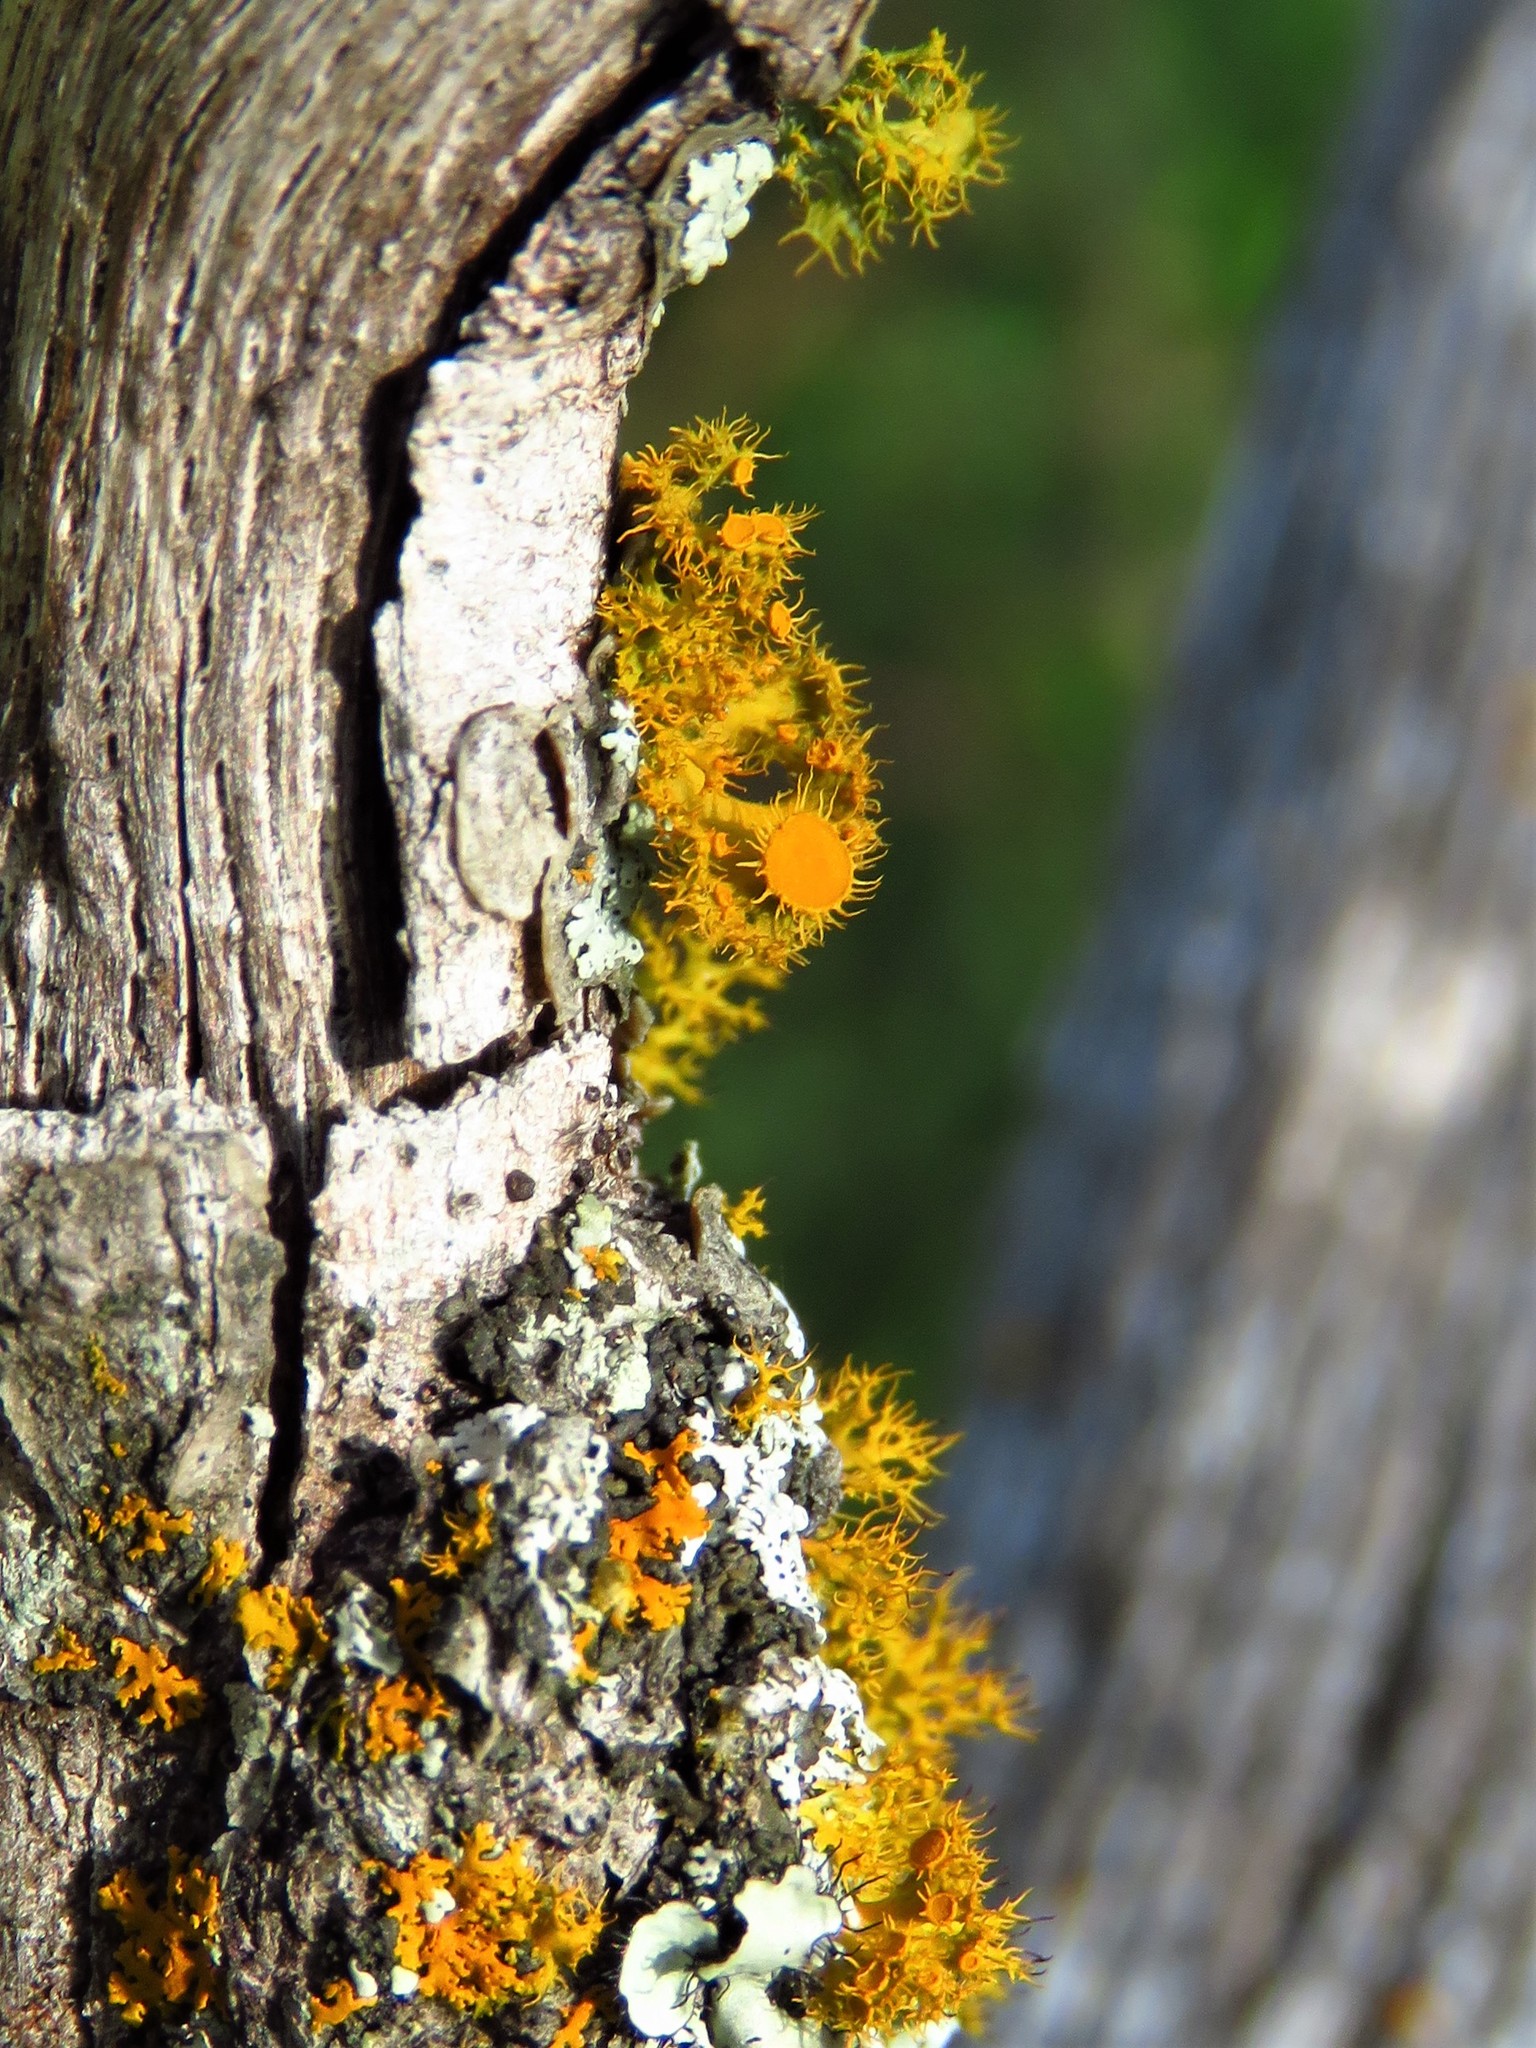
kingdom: Fungi
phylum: Ascomycota
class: Lecanoromycetes
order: Teloschistales
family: Teloschistaceae
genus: Niorma
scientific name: Niorma chrysophthalma
